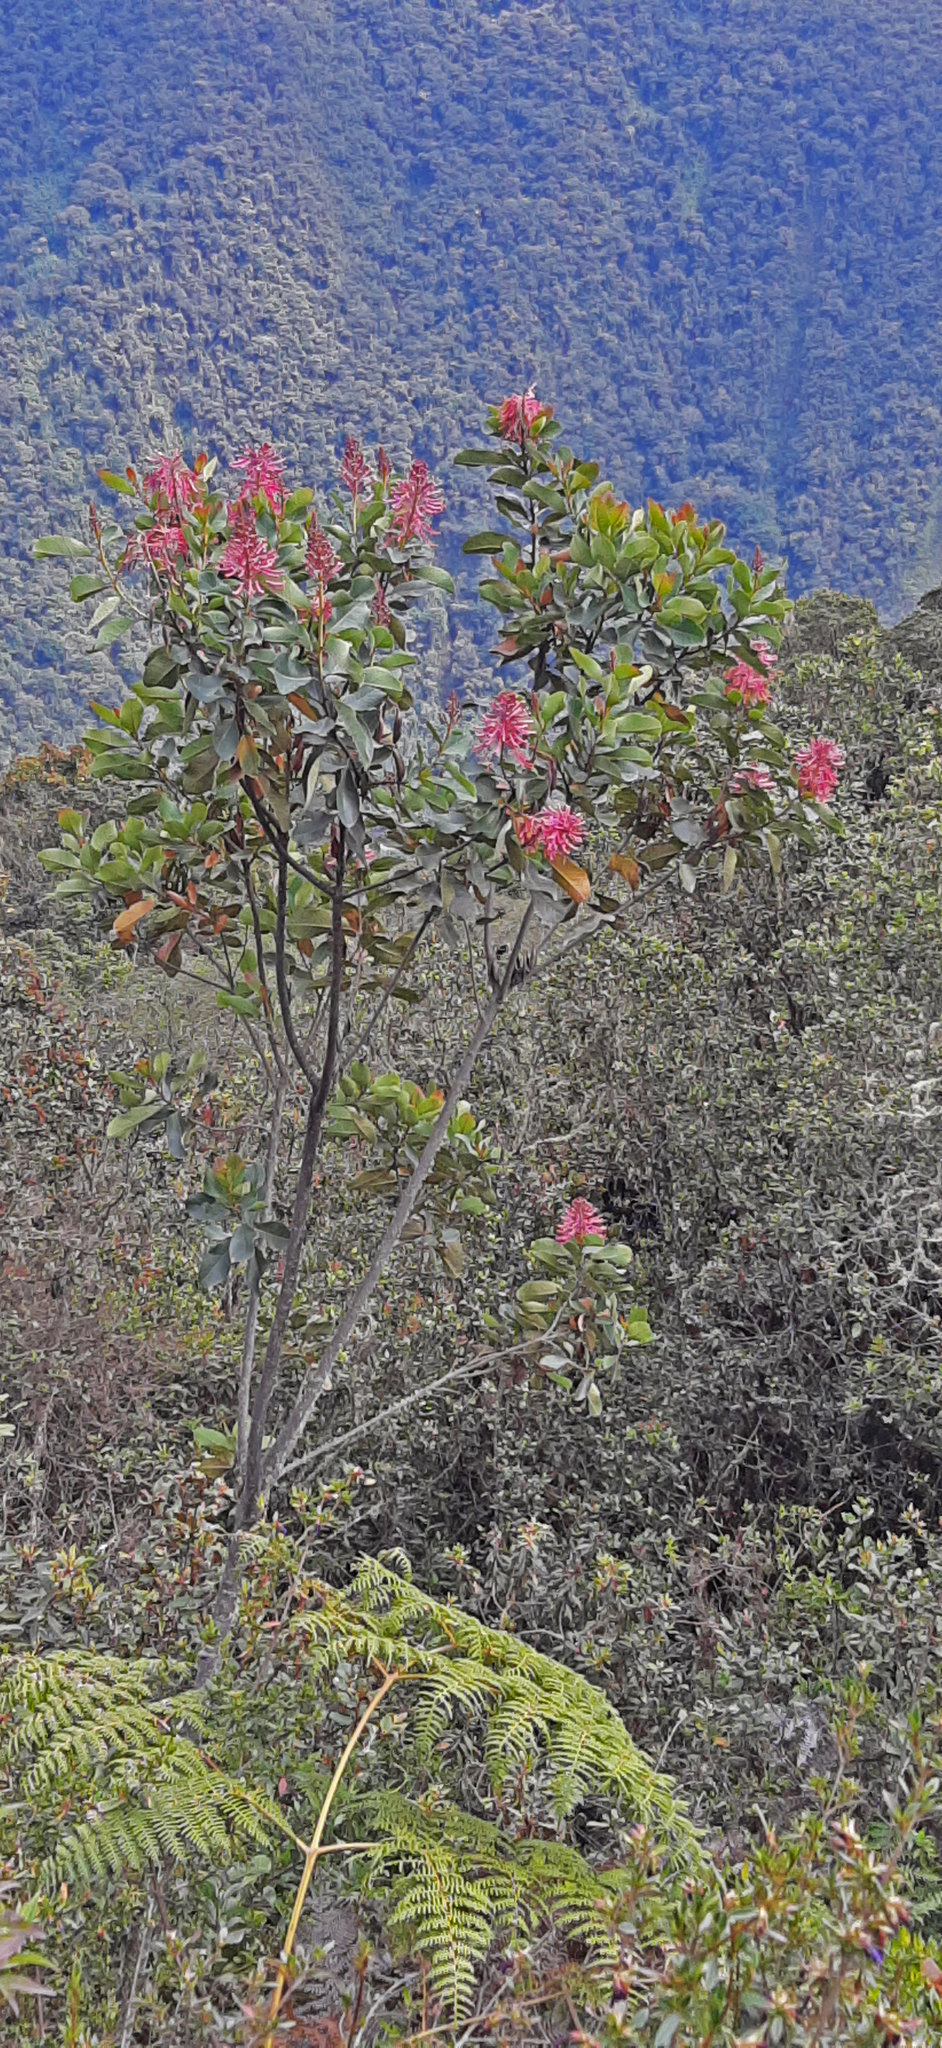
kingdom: Plantae
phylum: Tracheophyta
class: Magnoliopsida
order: Proteales
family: Proteaceae
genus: Oreocallis
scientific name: Oreocallis grandiflora
